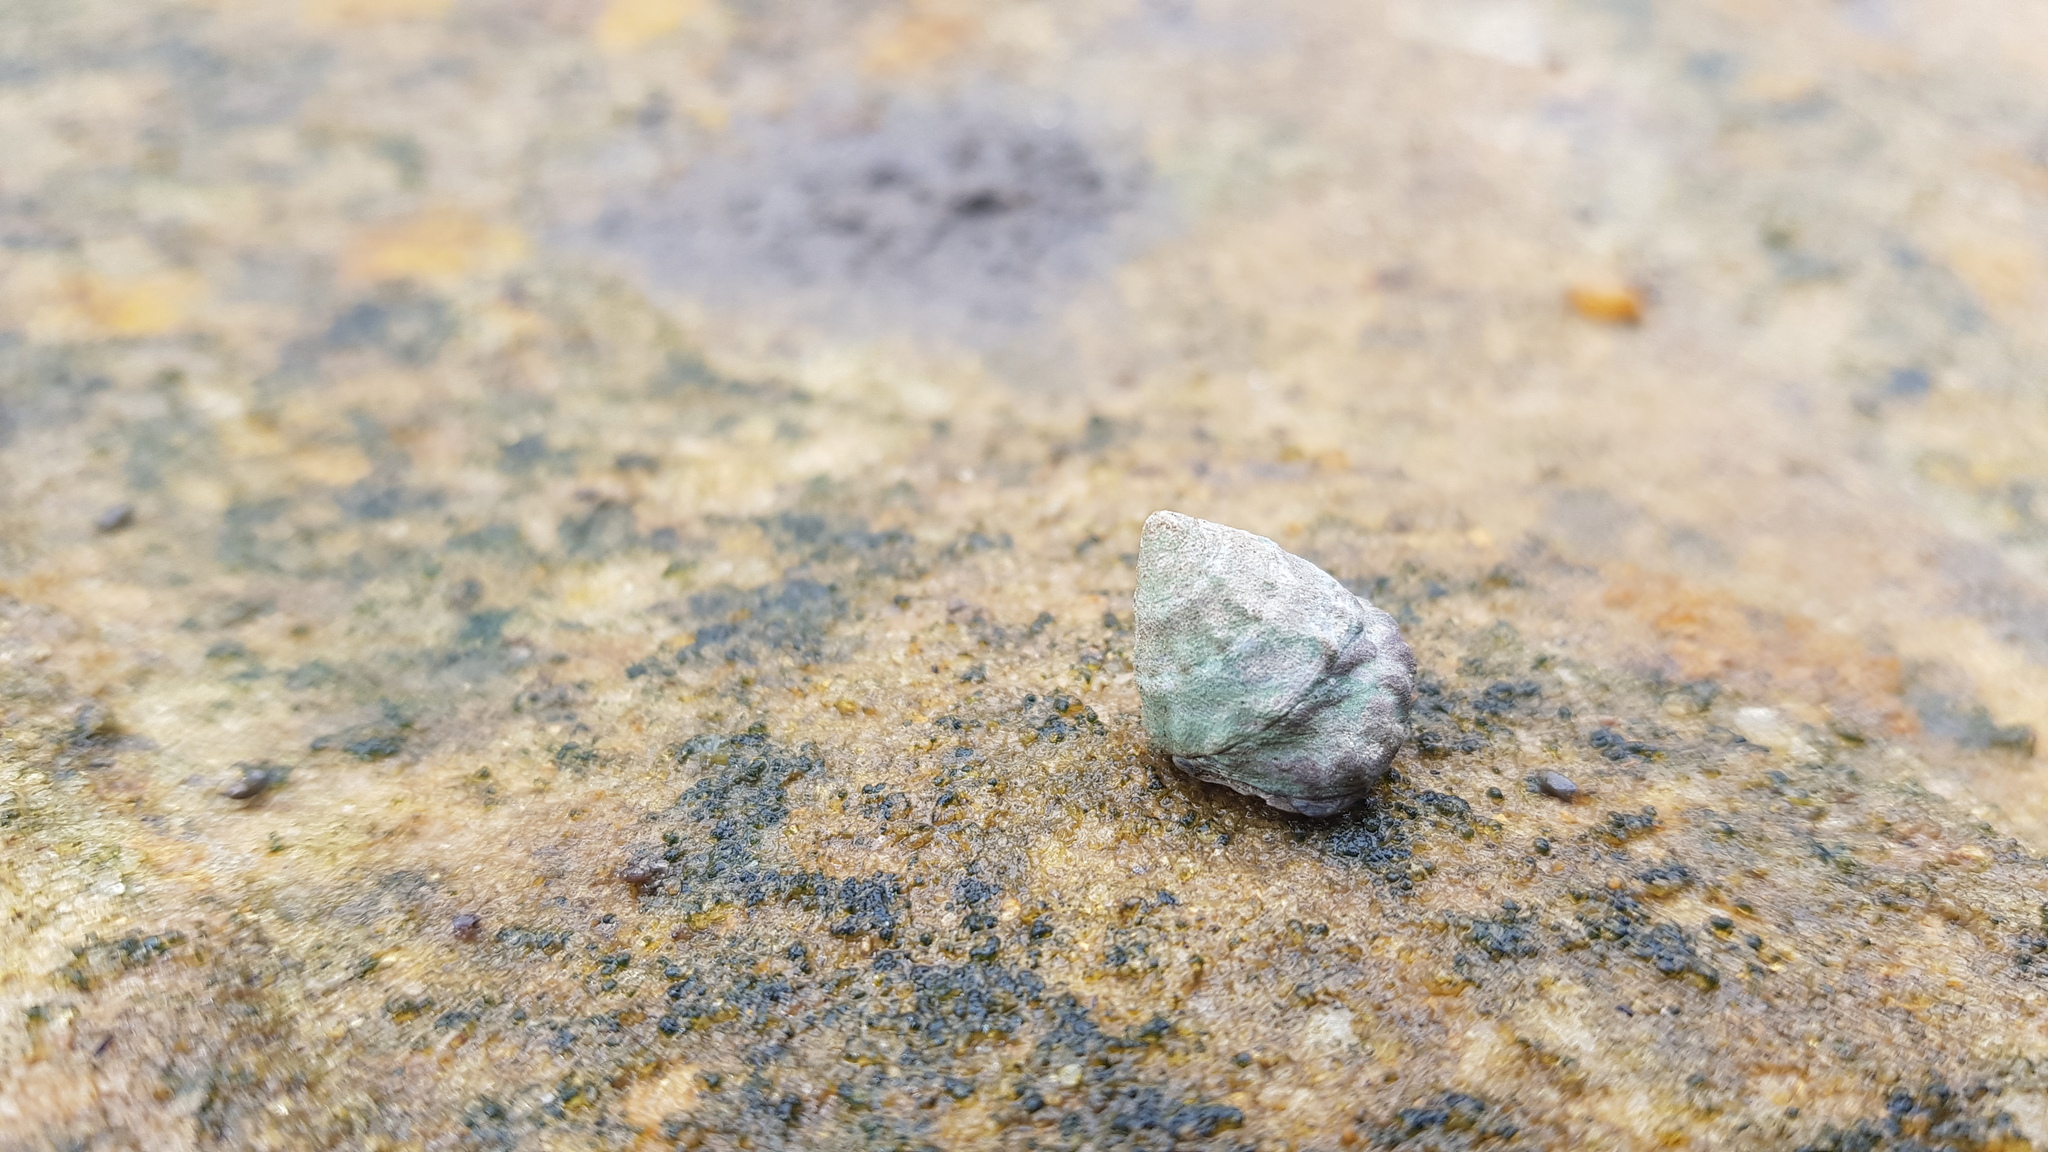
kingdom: Animalia
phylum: Mollusca
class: Gastropoda
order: Littorinimorpha
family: Littorinidae
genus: Bembicium
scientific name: Bembicium auratum
